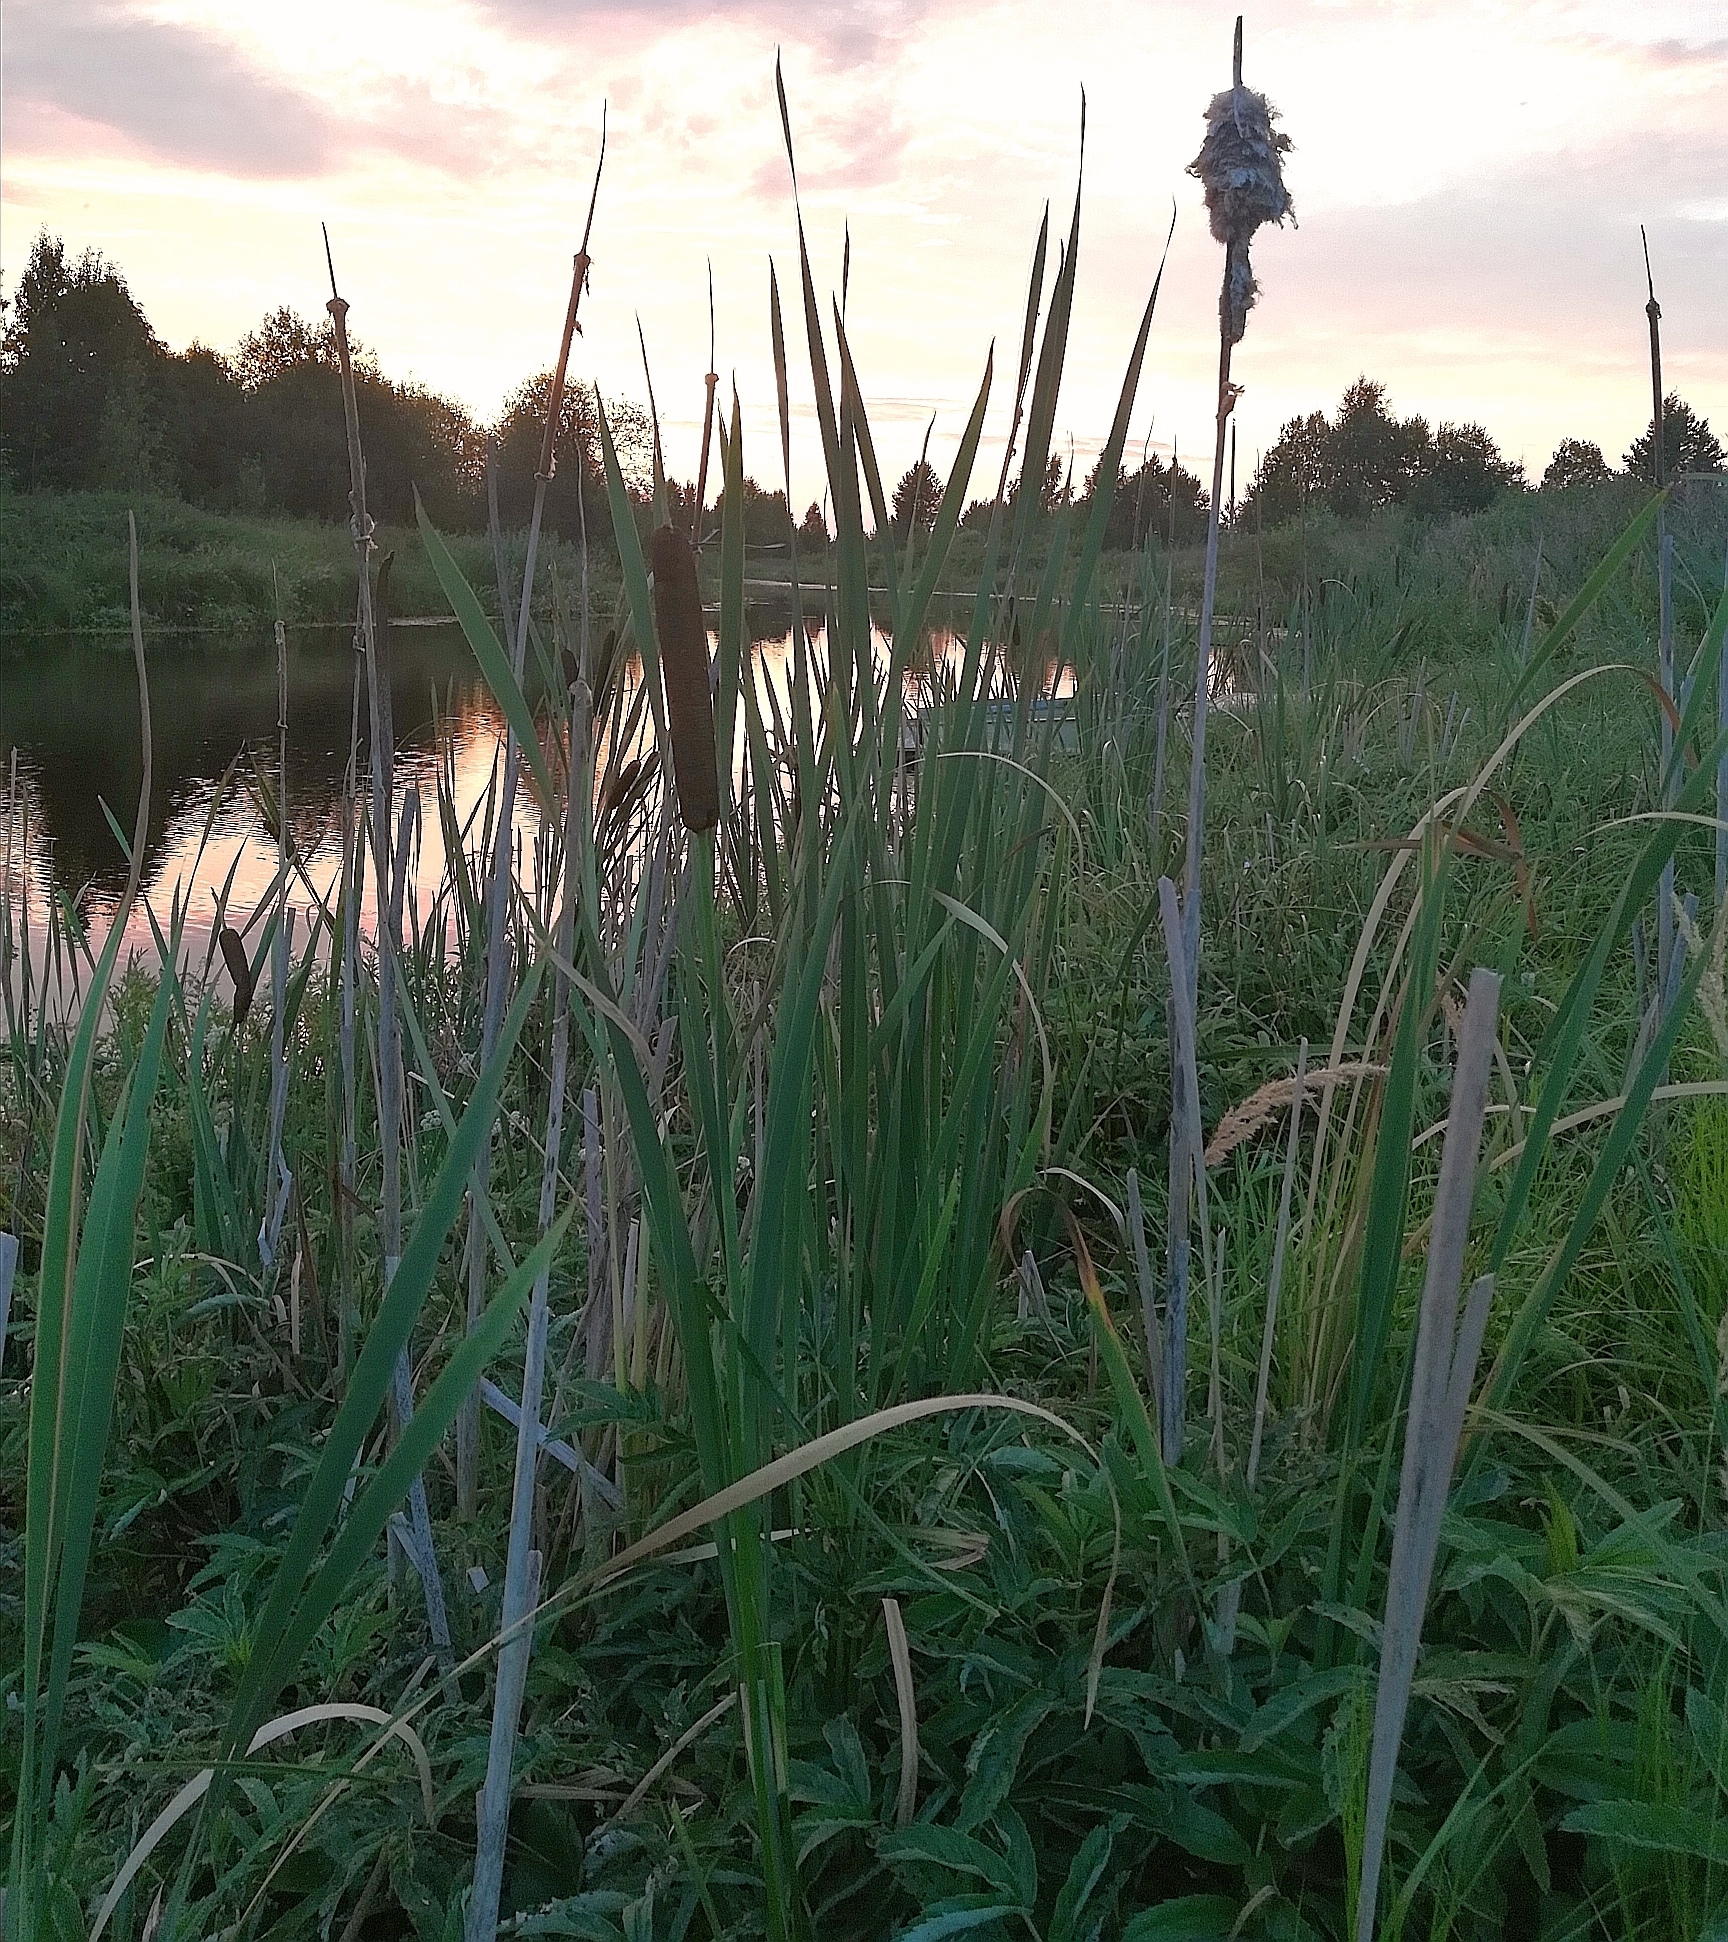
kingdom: Plantae
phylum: Tracheophyta
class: Liliopsida
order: Poales
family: Typhaceae
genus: Typha
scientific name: Typha latifolia
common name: Broadleaf cattail
